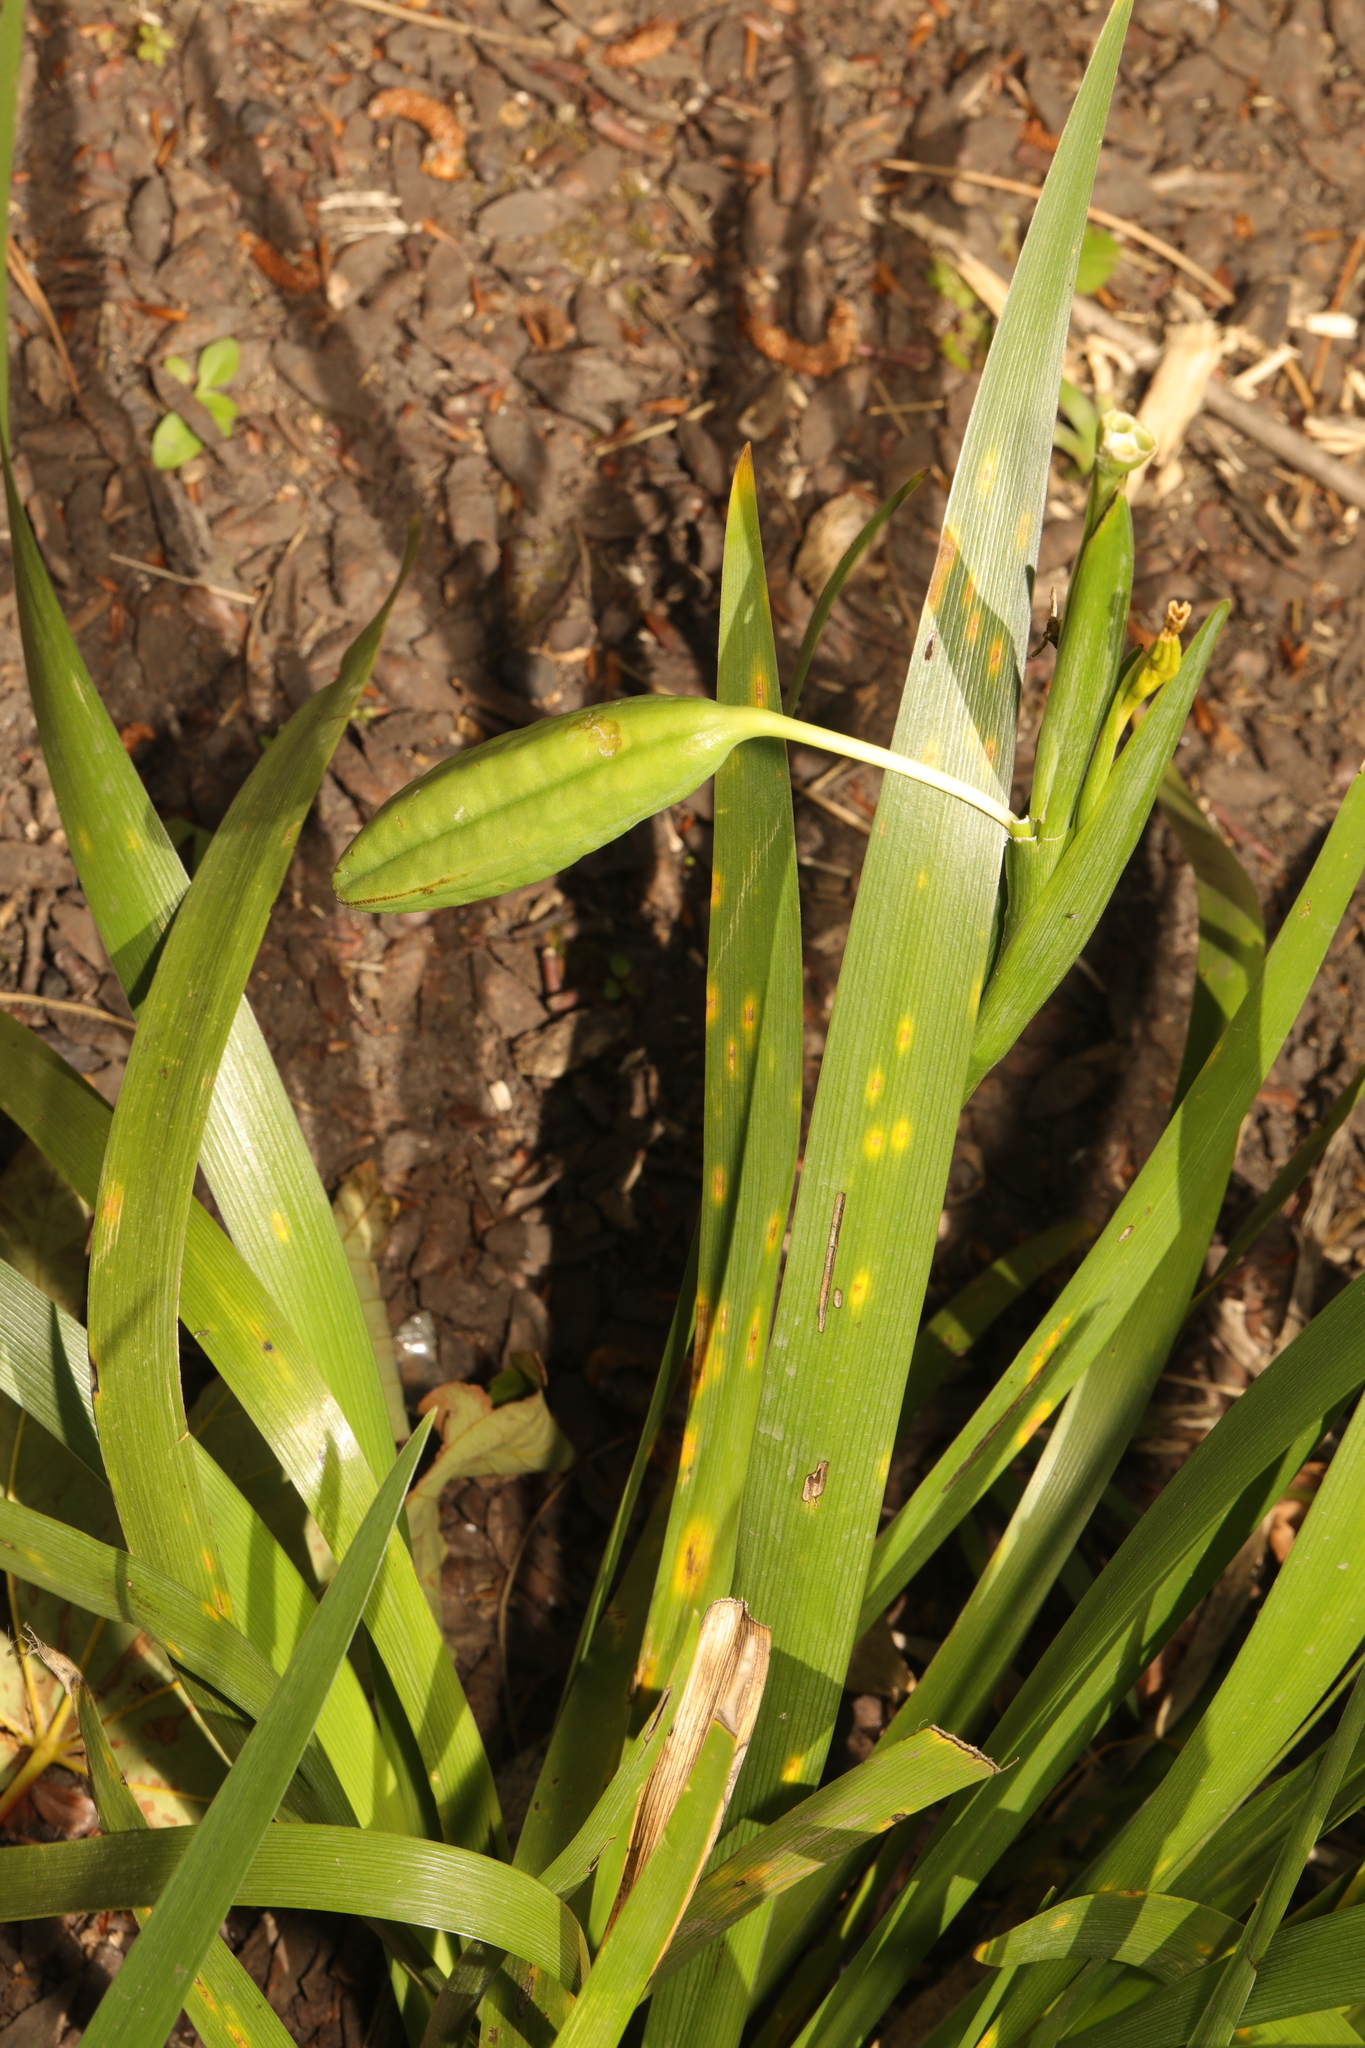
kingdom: Plantae
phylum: Tracheophyta
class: Liliopsida
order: Asparagales
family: Iridaceae
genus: Iris
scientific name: Iris foetidissima
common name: Stinking iris
